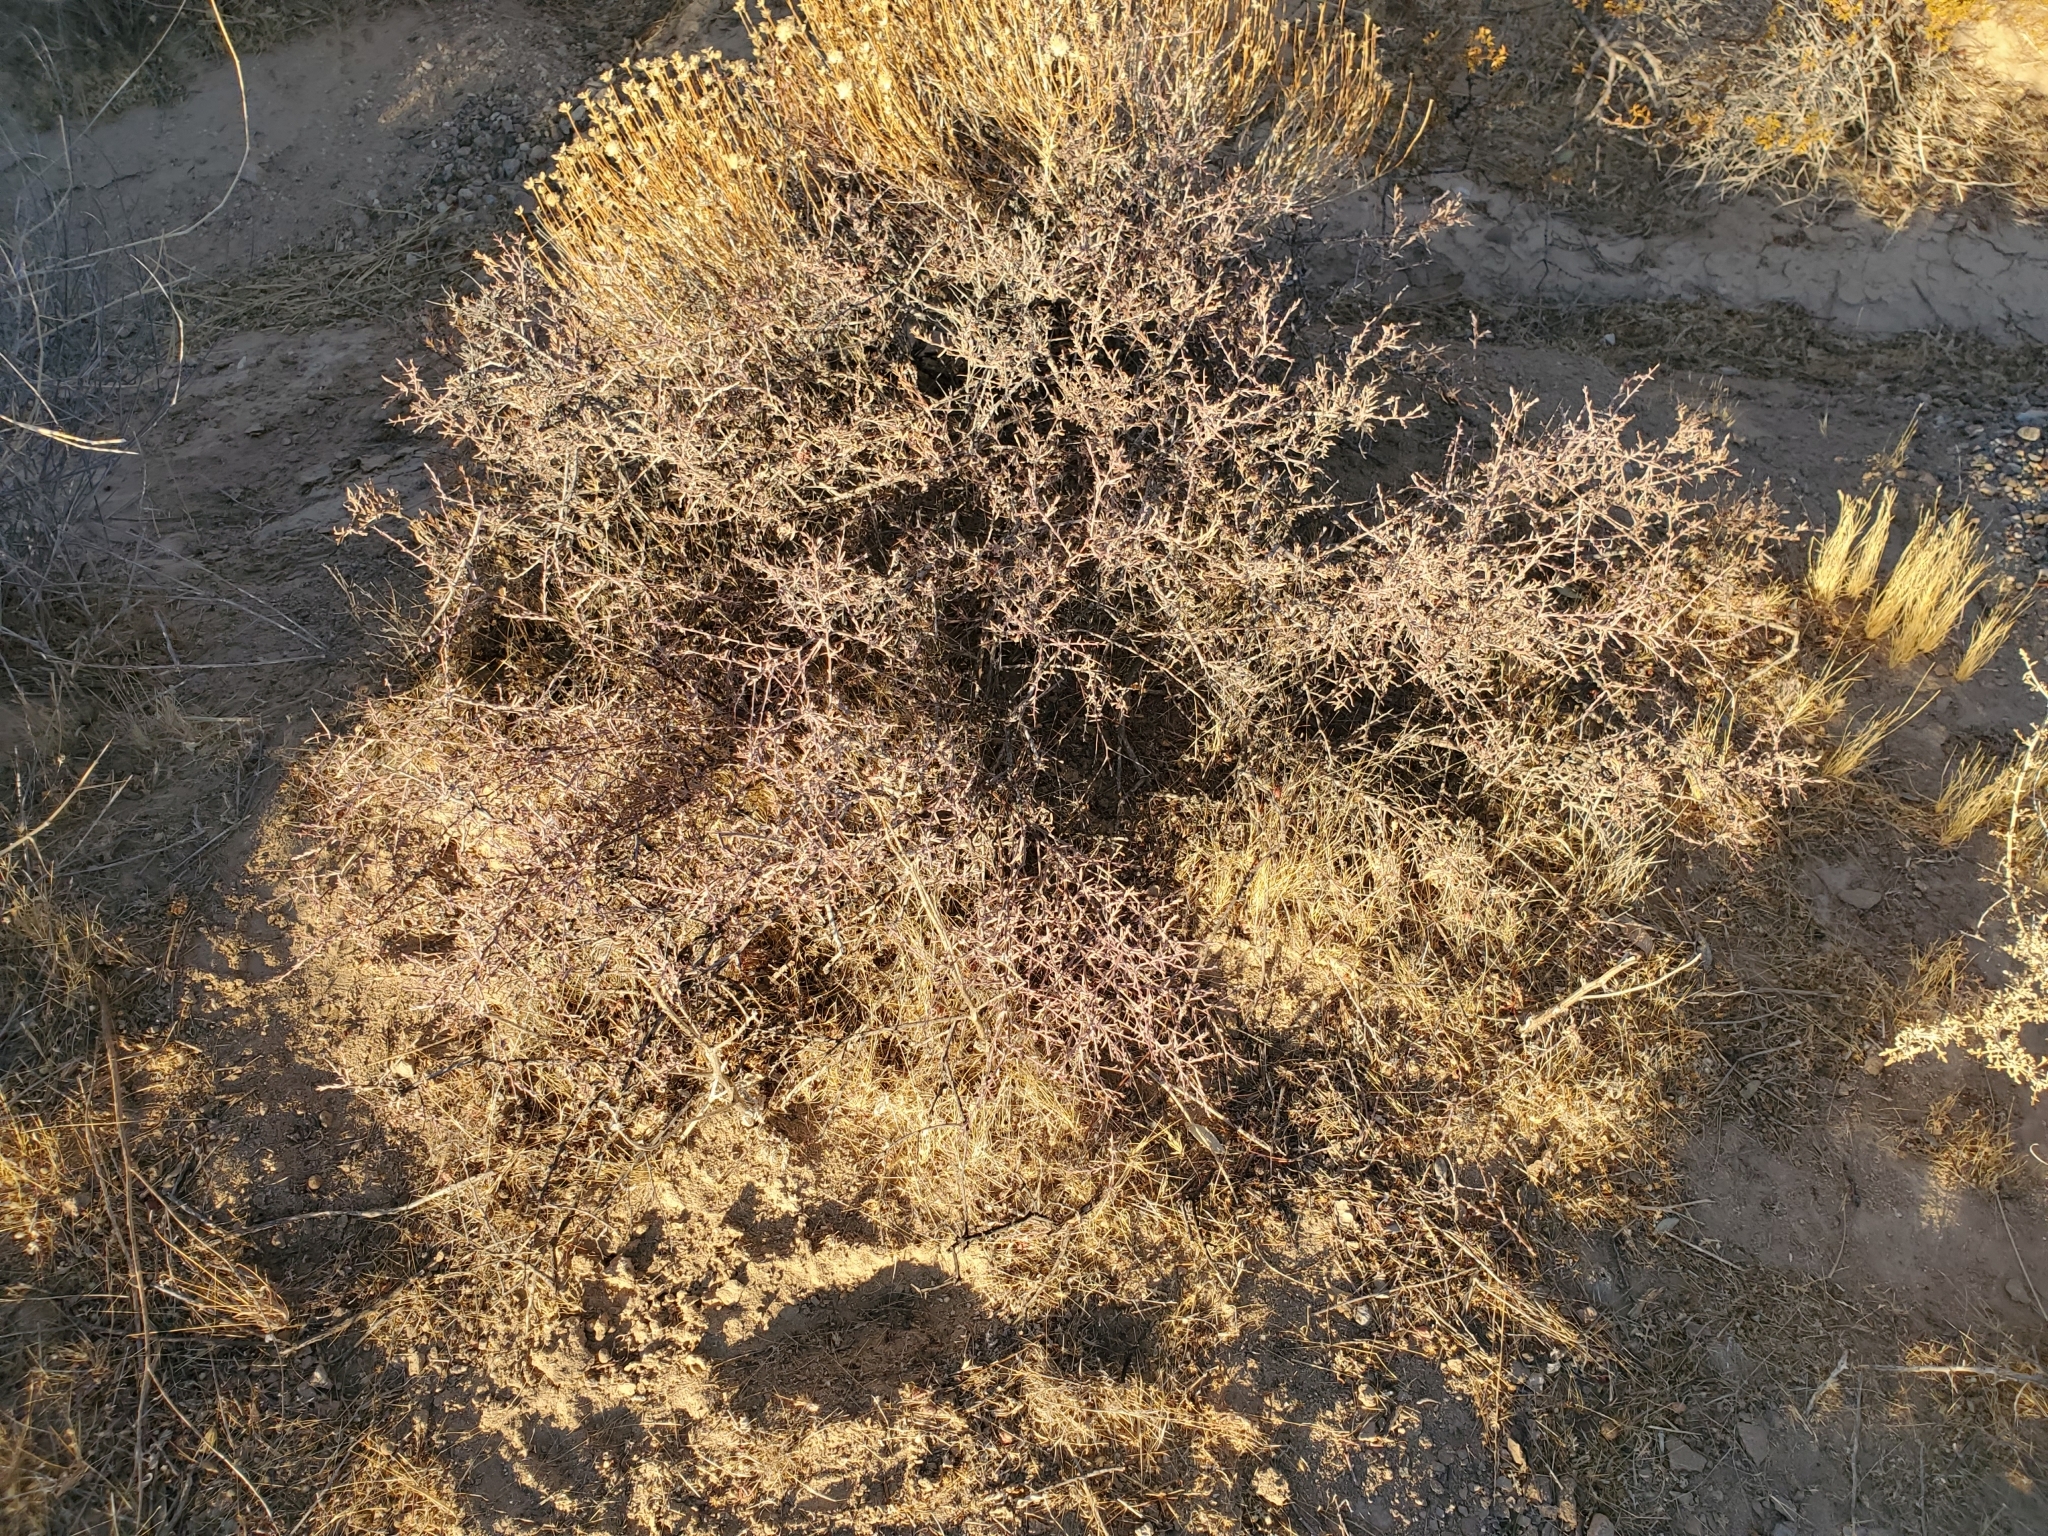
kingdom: Plantae
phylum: Tracheophyta
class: Magnoliopsida
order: Zygophyllales
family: Krameriaceae
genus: Krameria
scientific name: Krameria erecta
